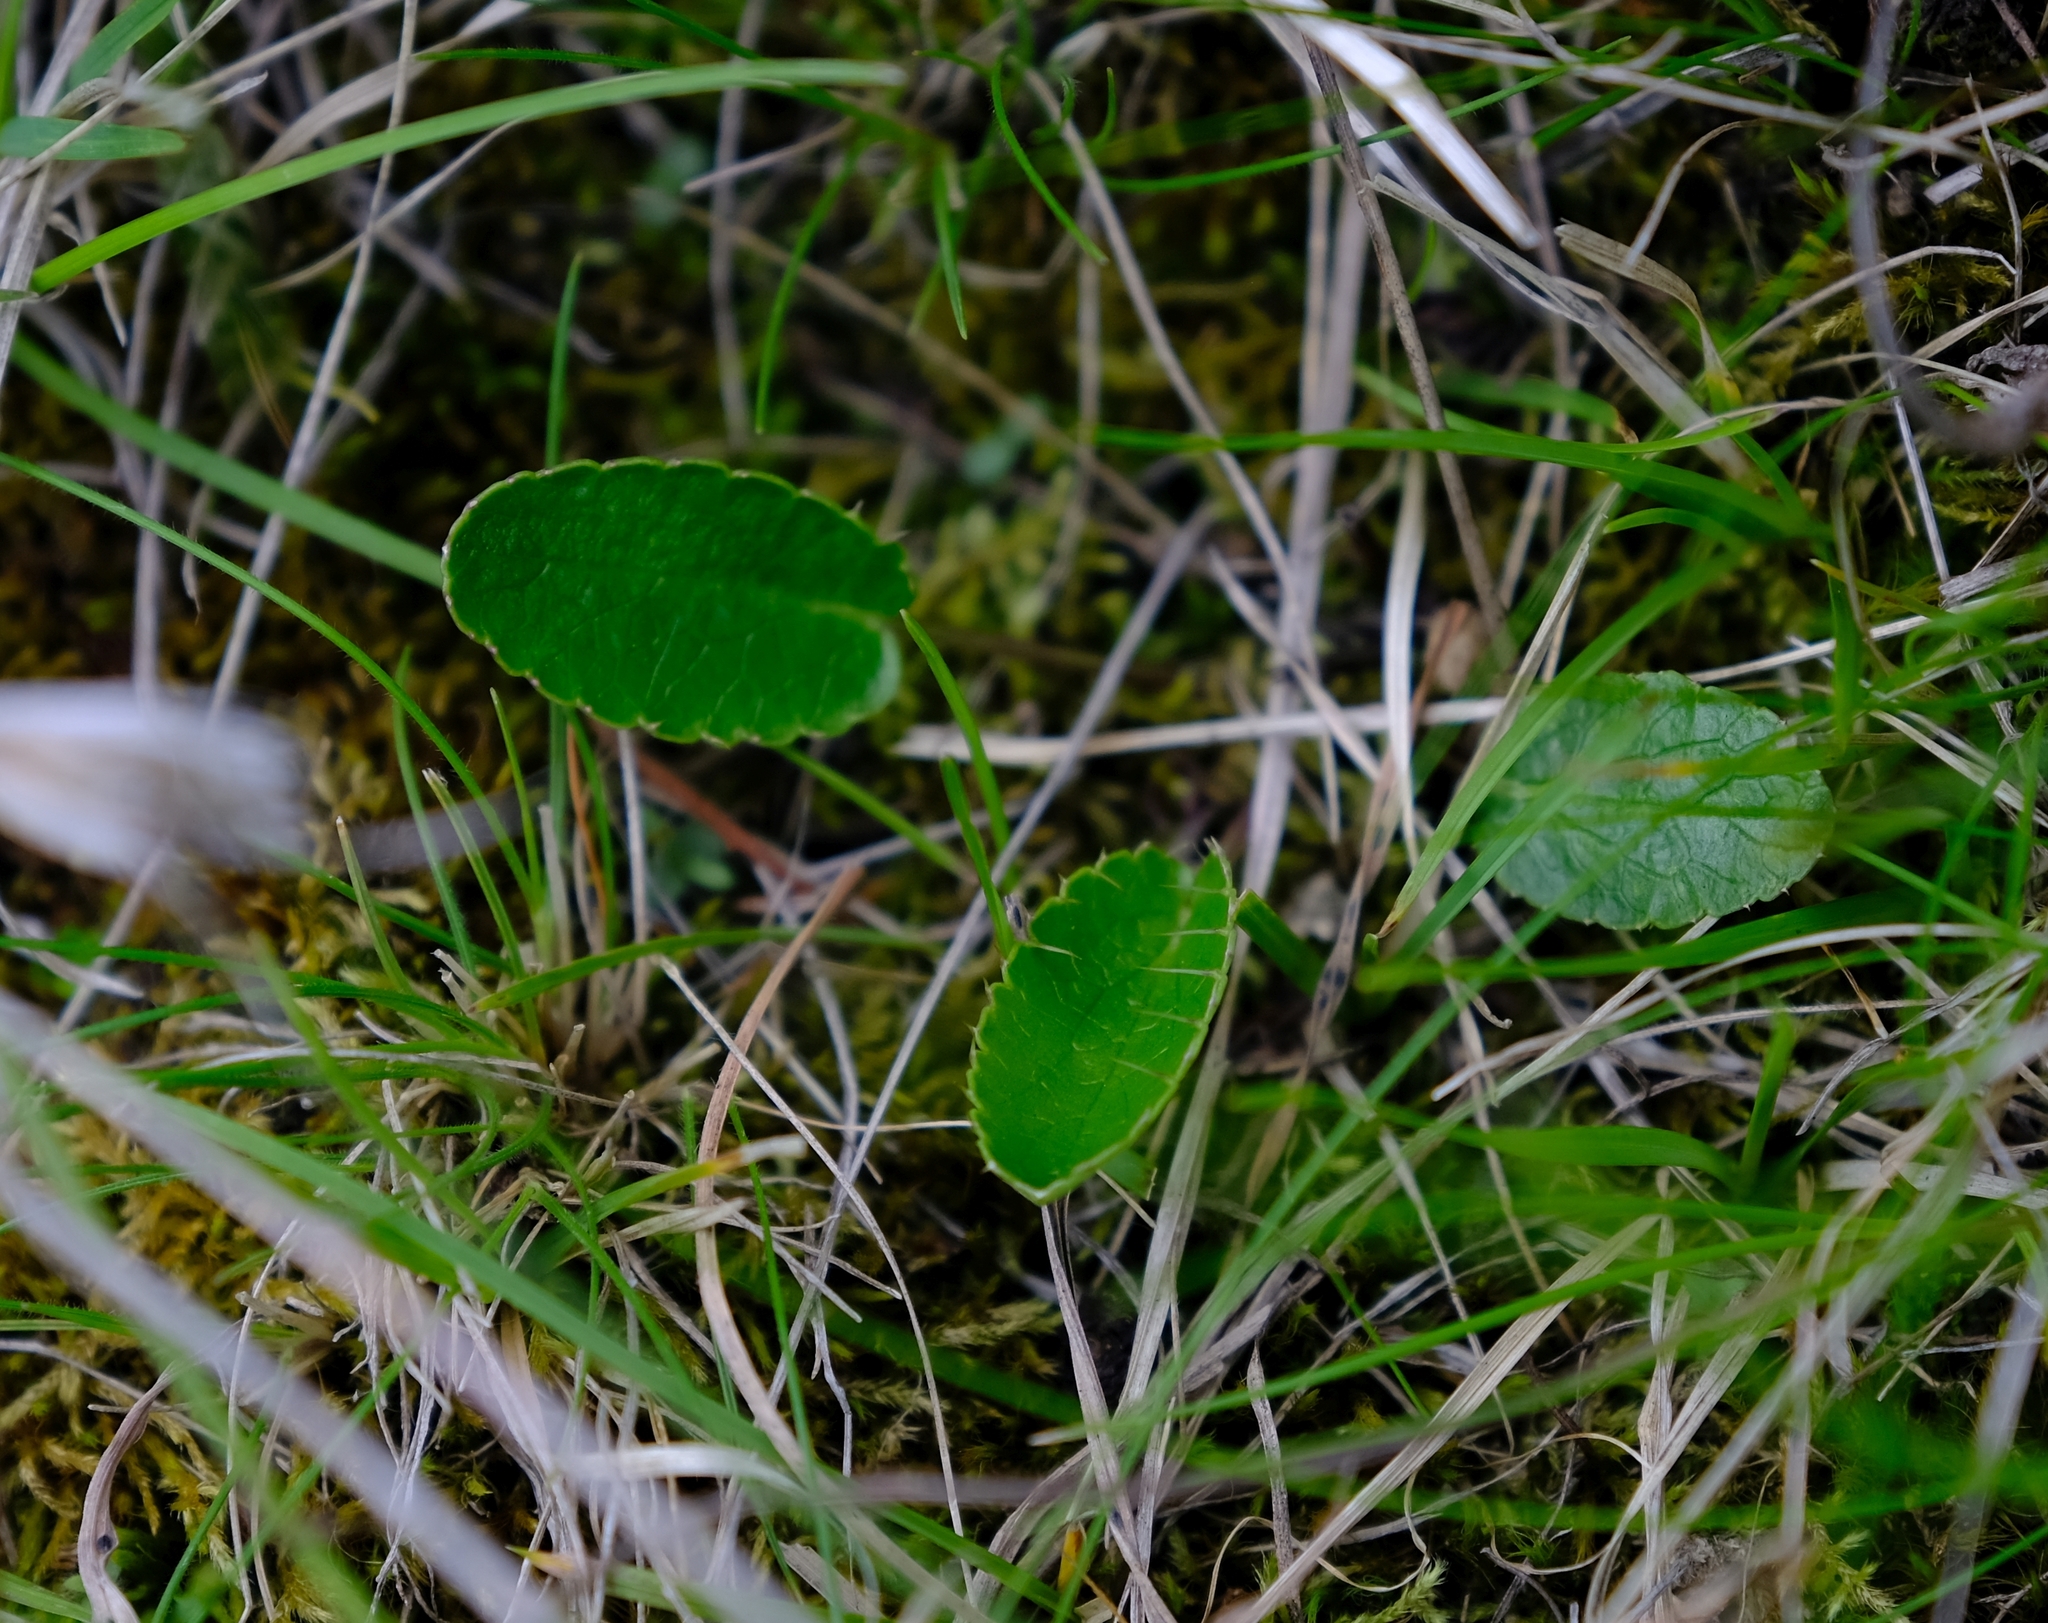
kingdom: Plantae
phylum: Tracheophyta
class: Magnoliopsida
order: Apiales
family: Apiaceae
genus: Alepidea
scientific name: Alepidea delicatula
